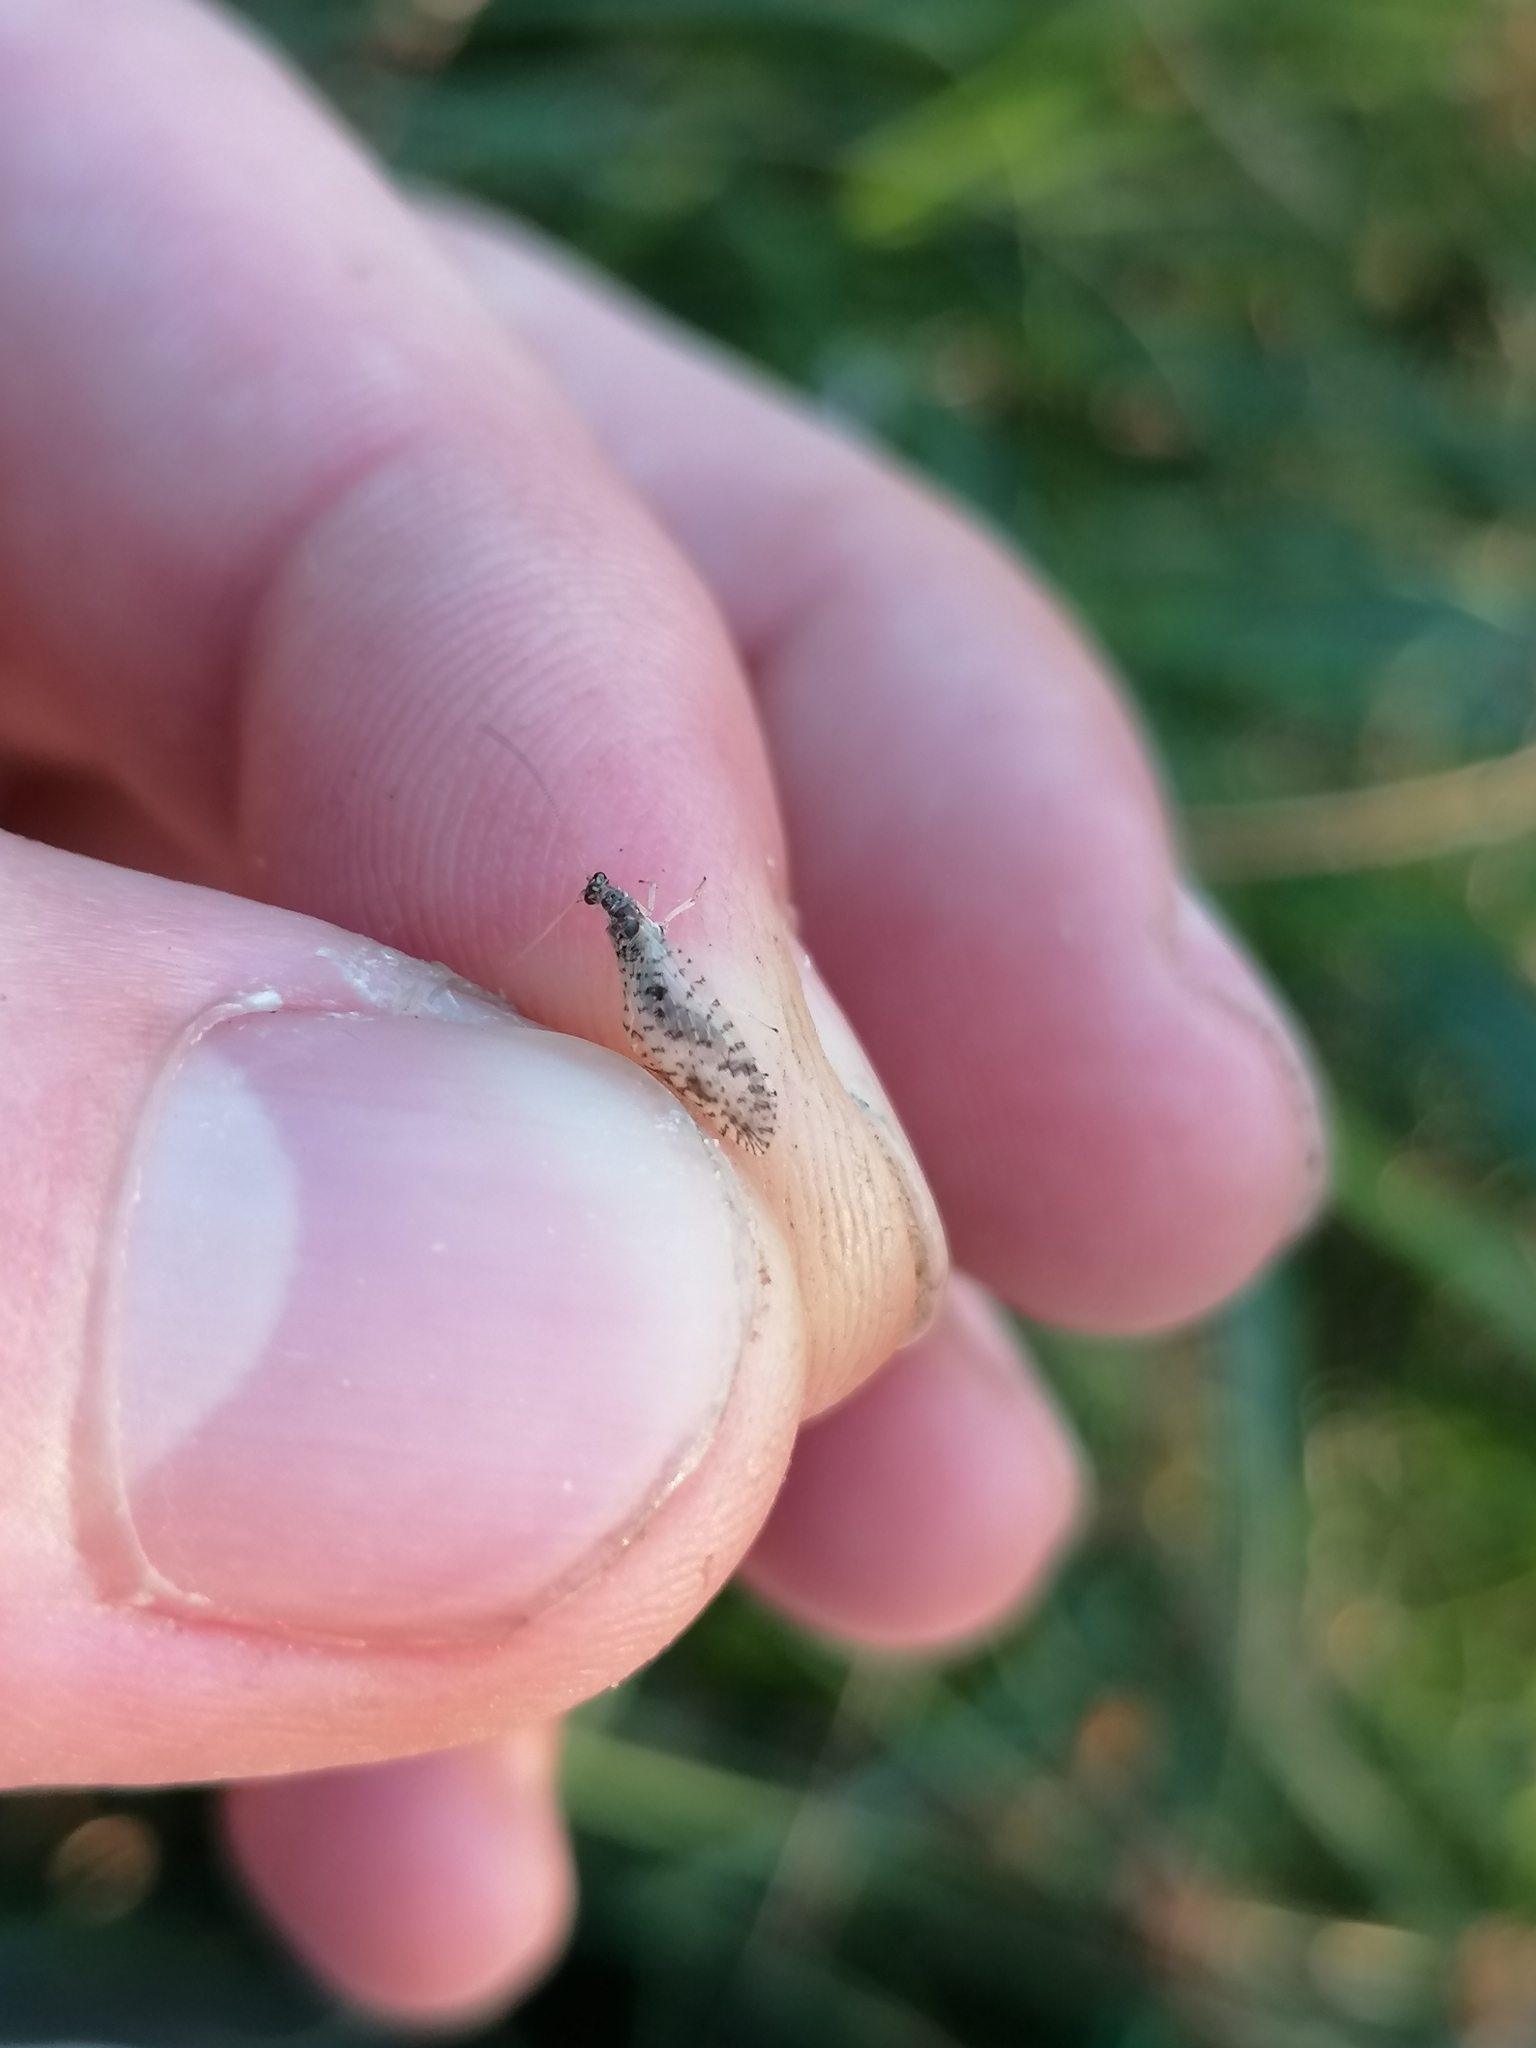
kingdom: Animalia
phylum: Arthropoda
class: Insecta
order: Neuroptera
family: Hemerobiidae
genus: Micromus
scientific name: Micromus variegatus
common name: Brown lacewing
